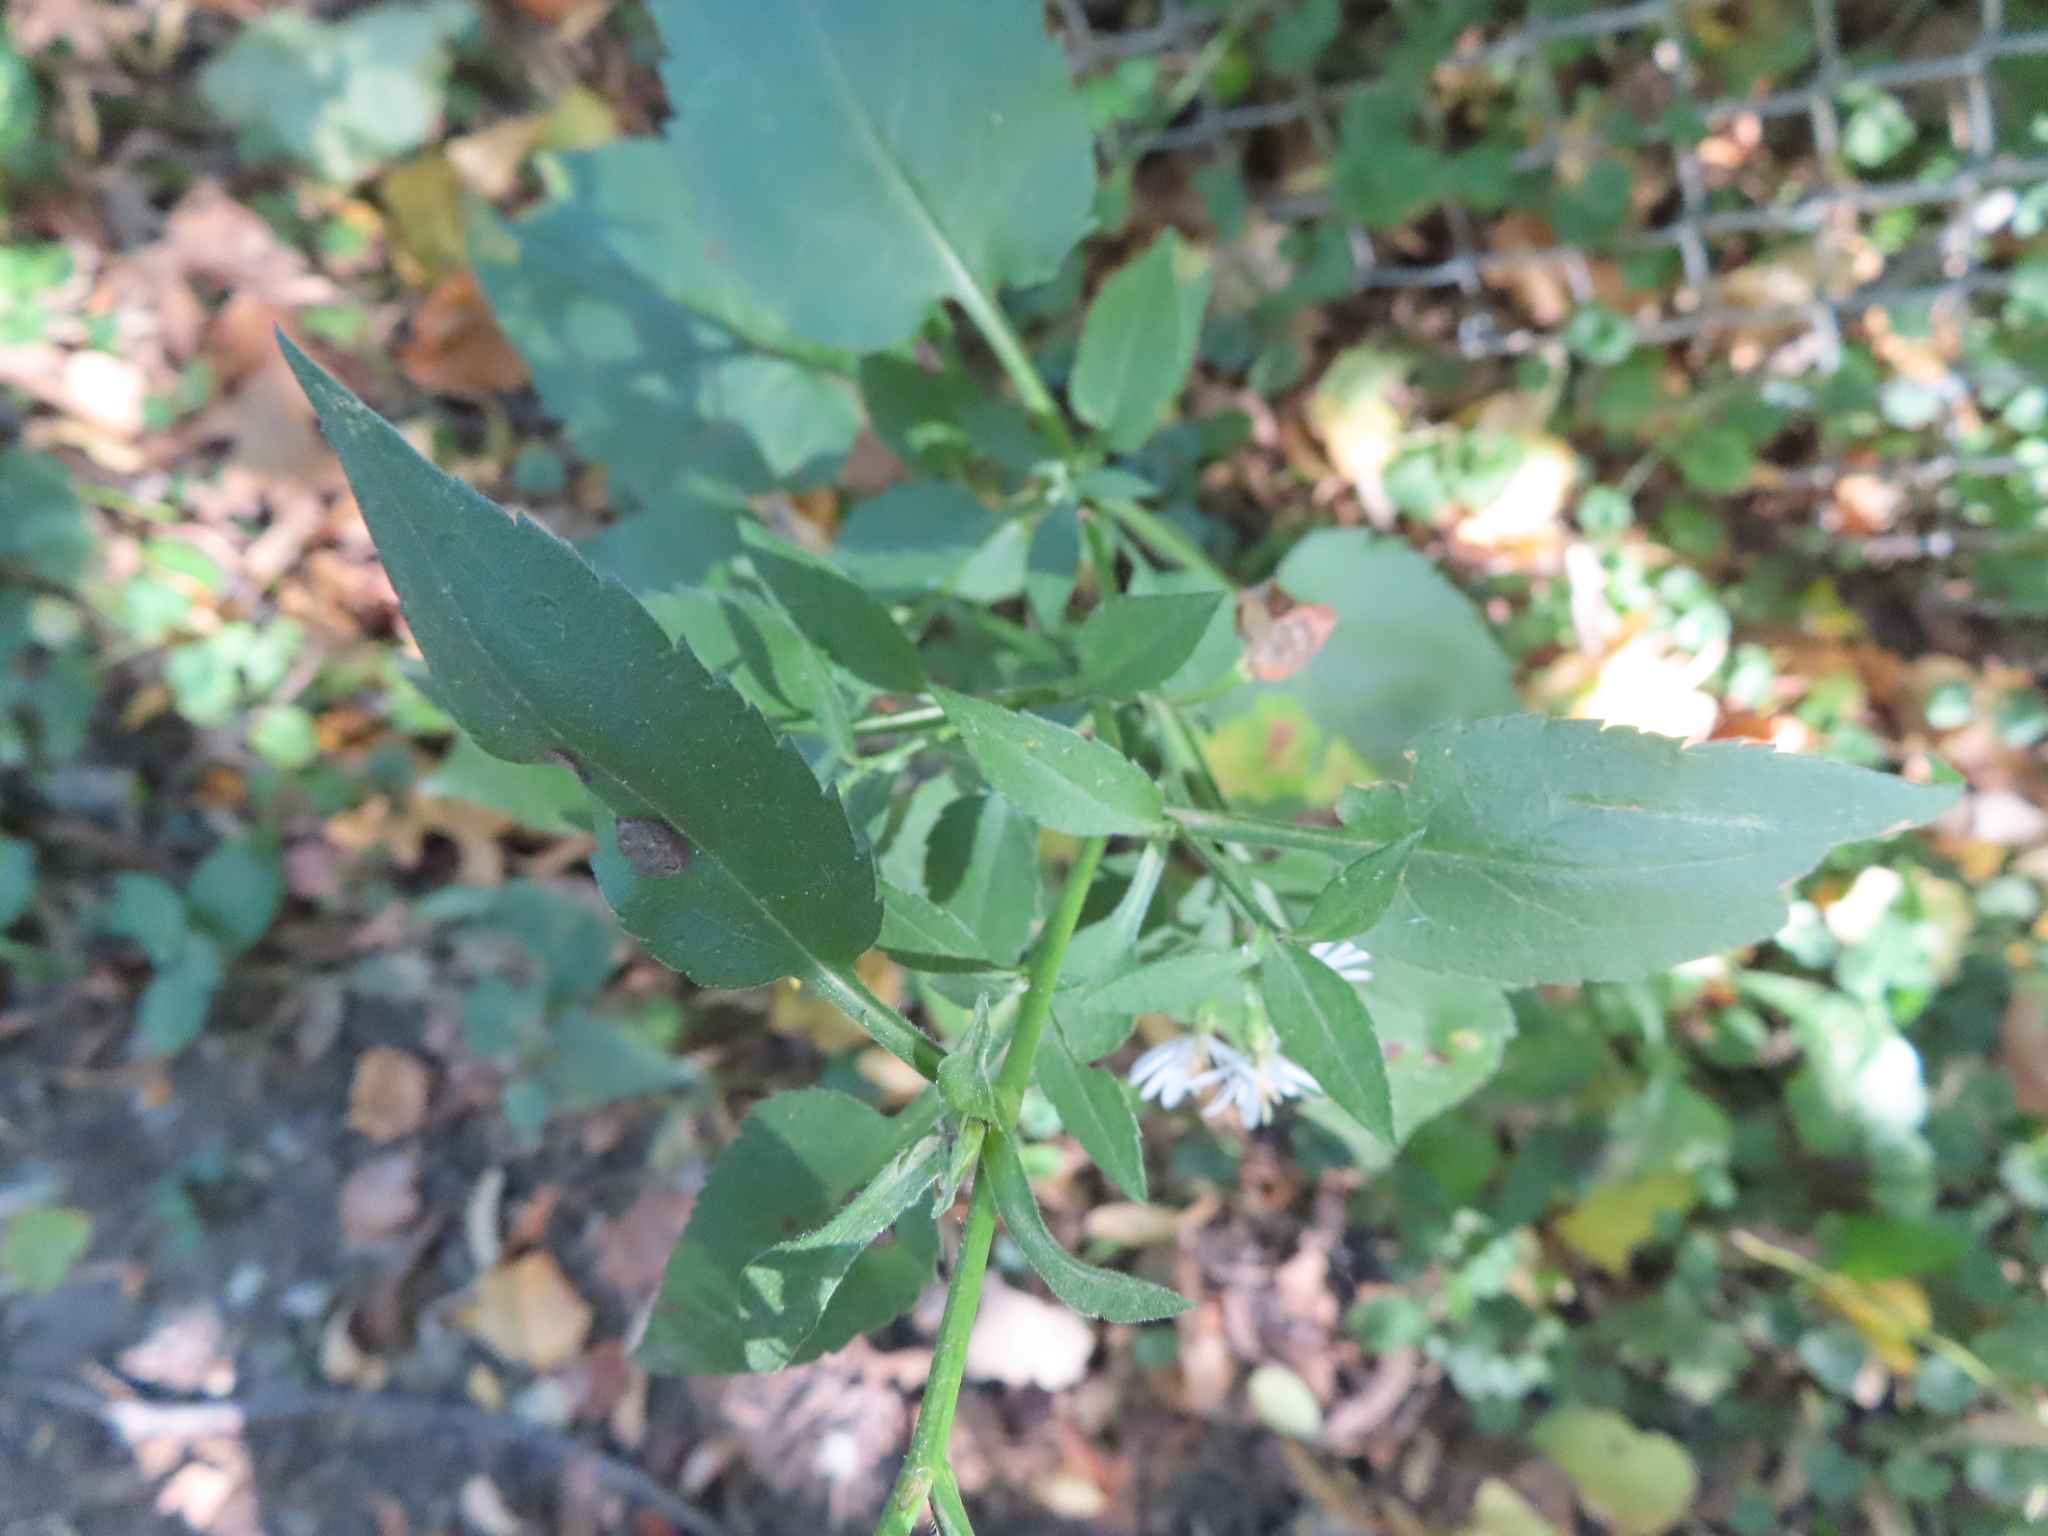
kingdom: Plantae
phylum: Tracheophyta
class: Magnoliopsida
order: Asterales
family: Asteraceae
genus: Symphyotrichum
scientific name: Symphyotrichum urophyllum
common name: Arrow-leaved aster
